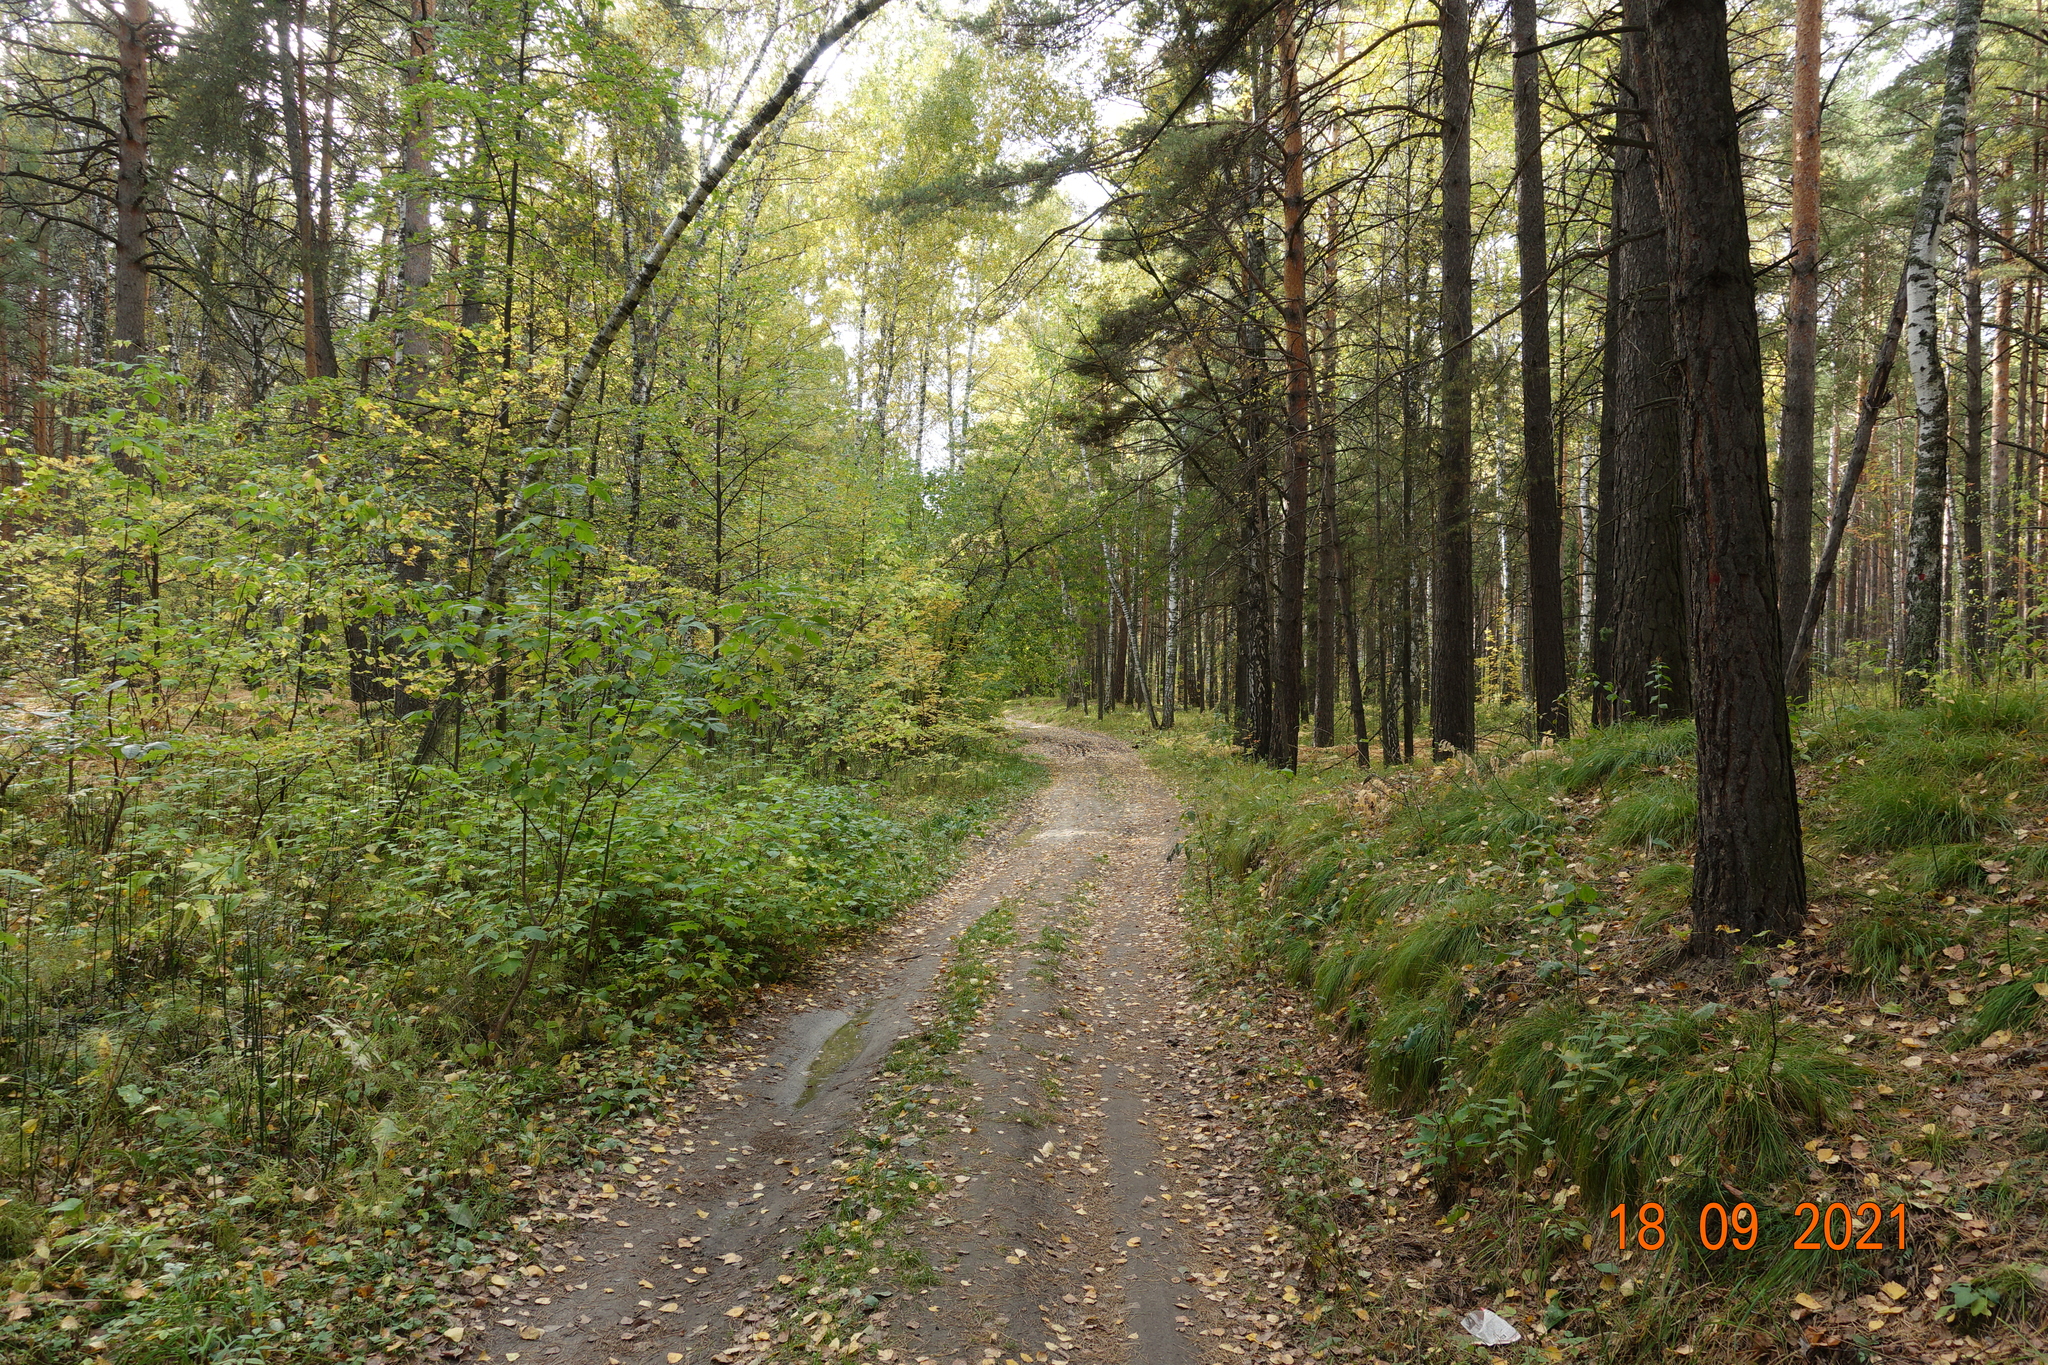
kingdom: Plantae
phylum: Tracheophyta
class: Pinopsida
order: Pinales
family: Pinaceae
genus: Pinus
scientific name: Pinus sylvestris
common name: Scots pine
